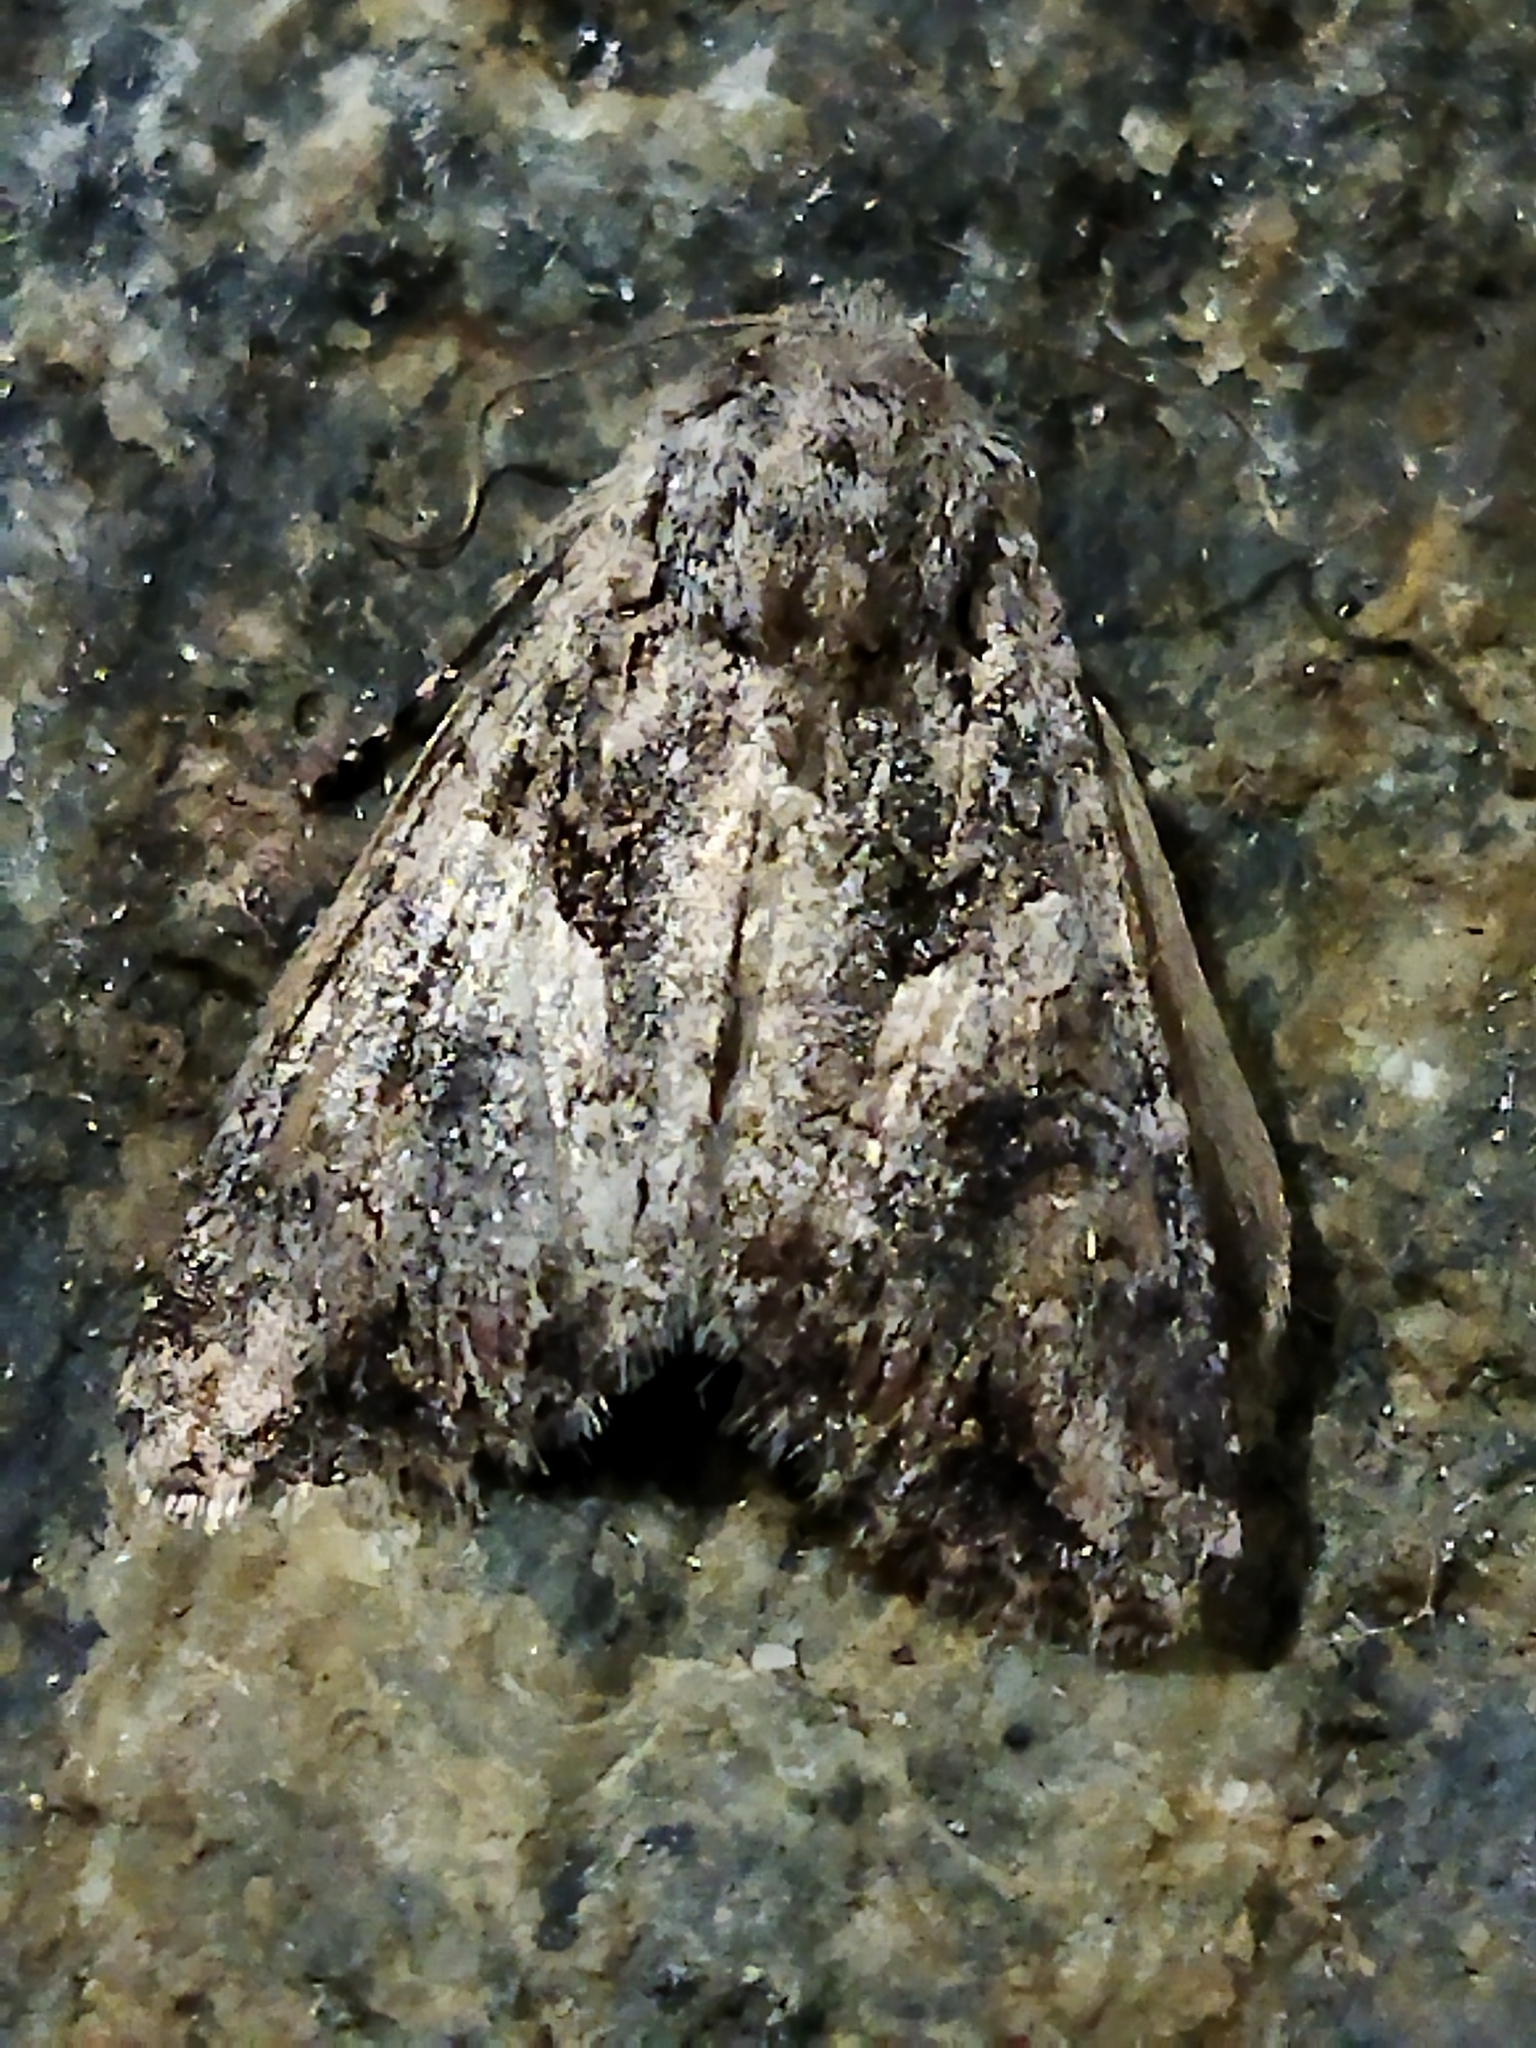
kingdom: Animalia
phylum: Arthropoda
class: Insecta
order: Lepidoptera
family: Noctuidae
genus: Anarta
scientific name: Anarta trifolii
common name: Clover cutworm moth
